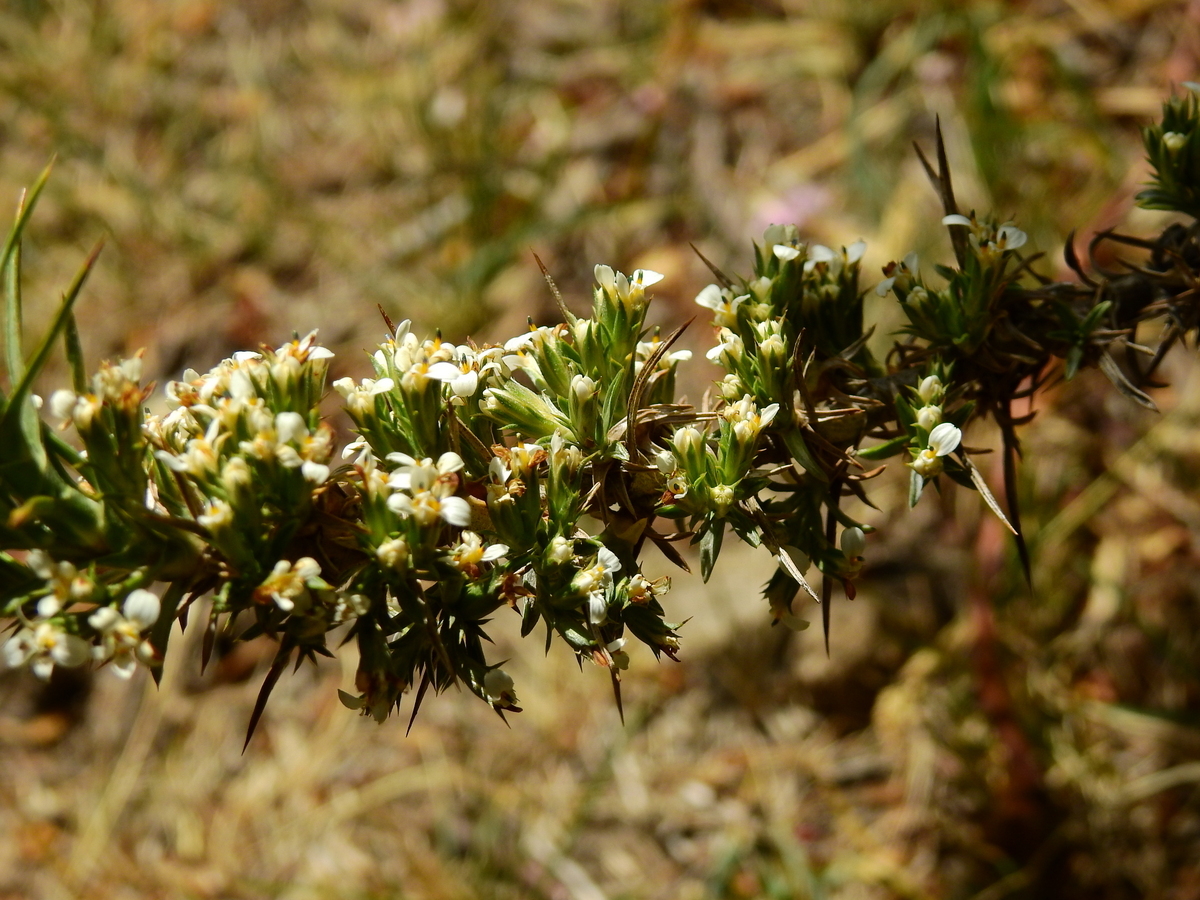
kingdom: Plantae
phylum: Tracheophyta
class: Magnoliopsida
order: Asterales
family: Asteraceae
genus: Nassauvia
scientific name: Nassauvia axillaris
